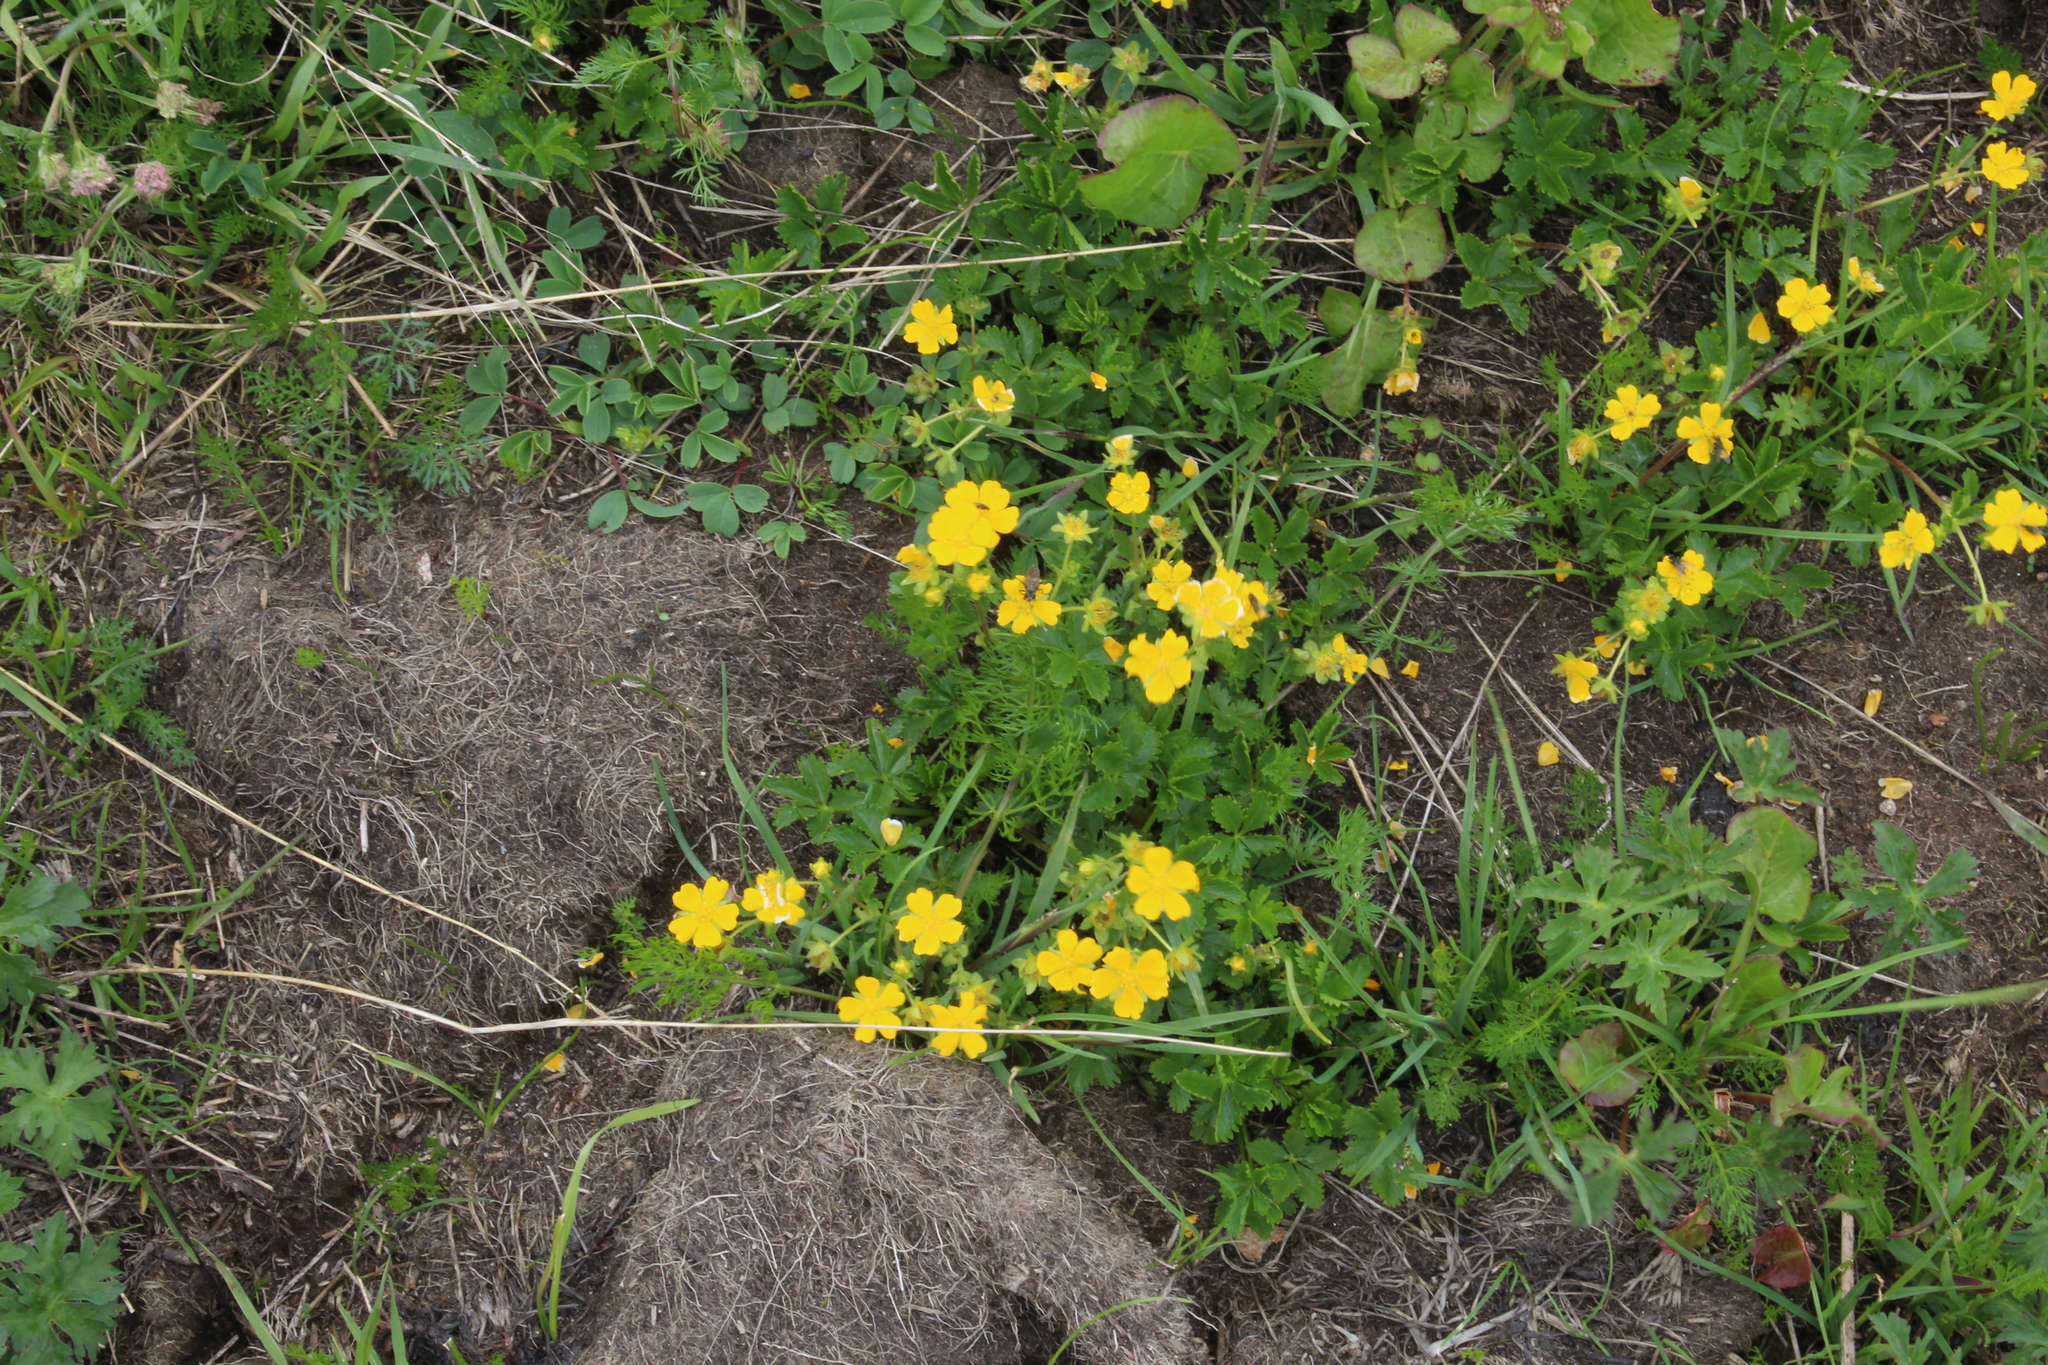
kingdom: Plantae
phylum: Tracheophyta
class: Magnoliopsida
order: Rosales
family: Rosaceae
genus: Potentilla
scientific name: Potentilla ruprechtii
